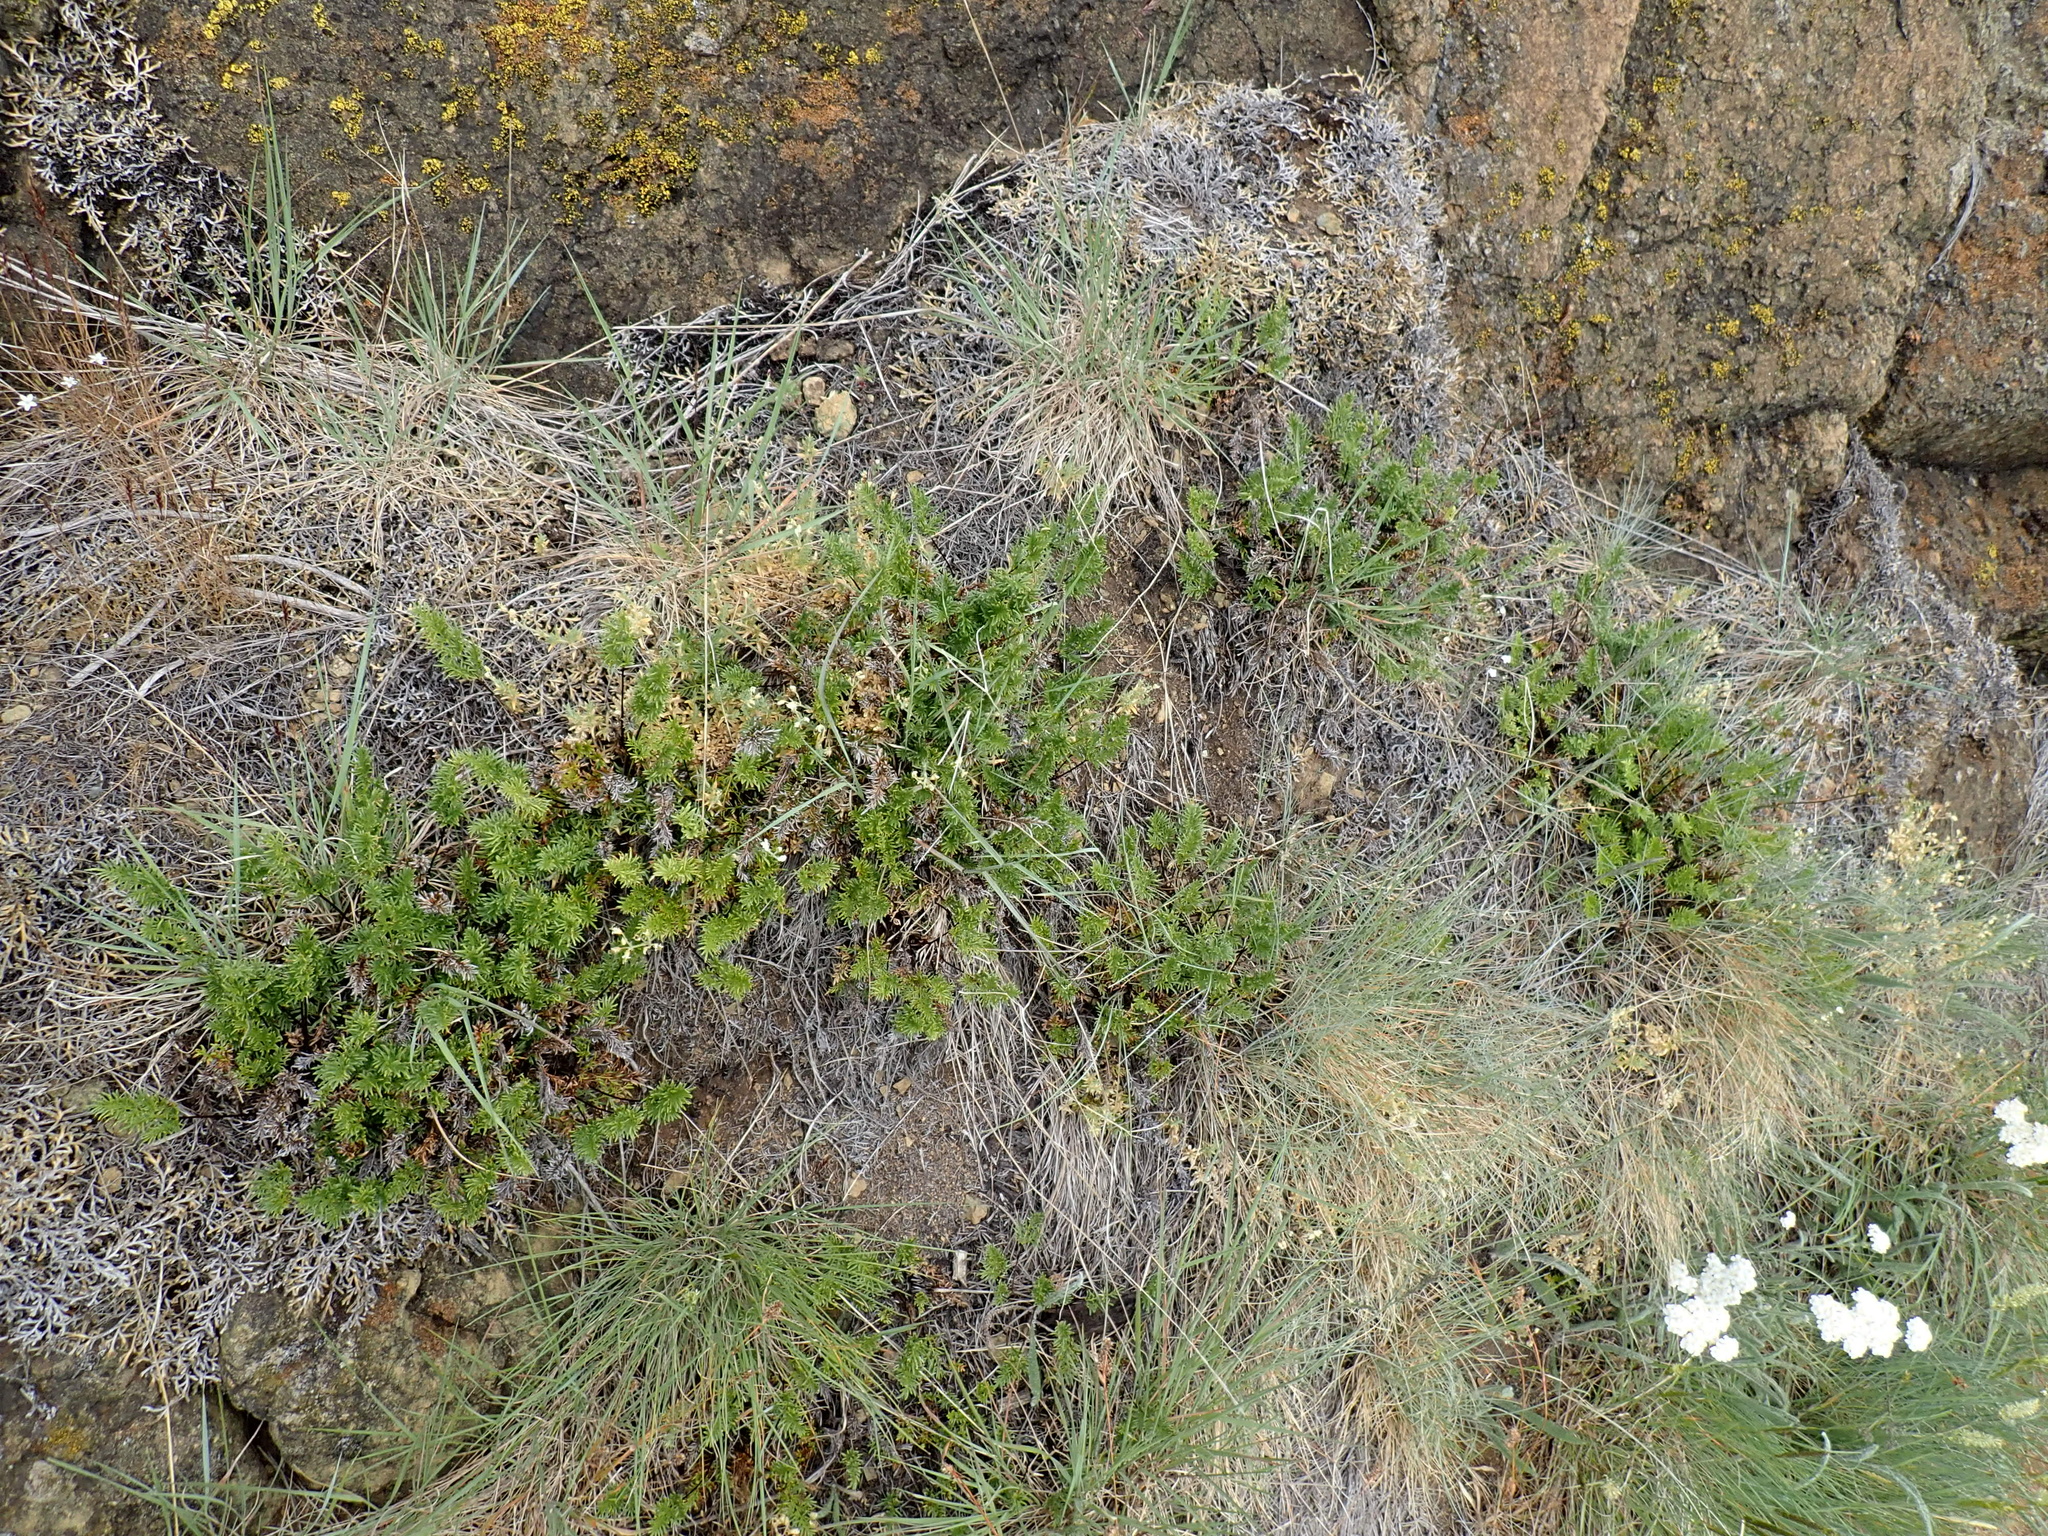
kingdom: Plantae
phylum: Tracheophyta
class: Polypodiopsida
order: Polypodiales
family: Pteridaceae
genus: Aspidotis
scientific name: Aspidotis densa
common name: Indian's dream
